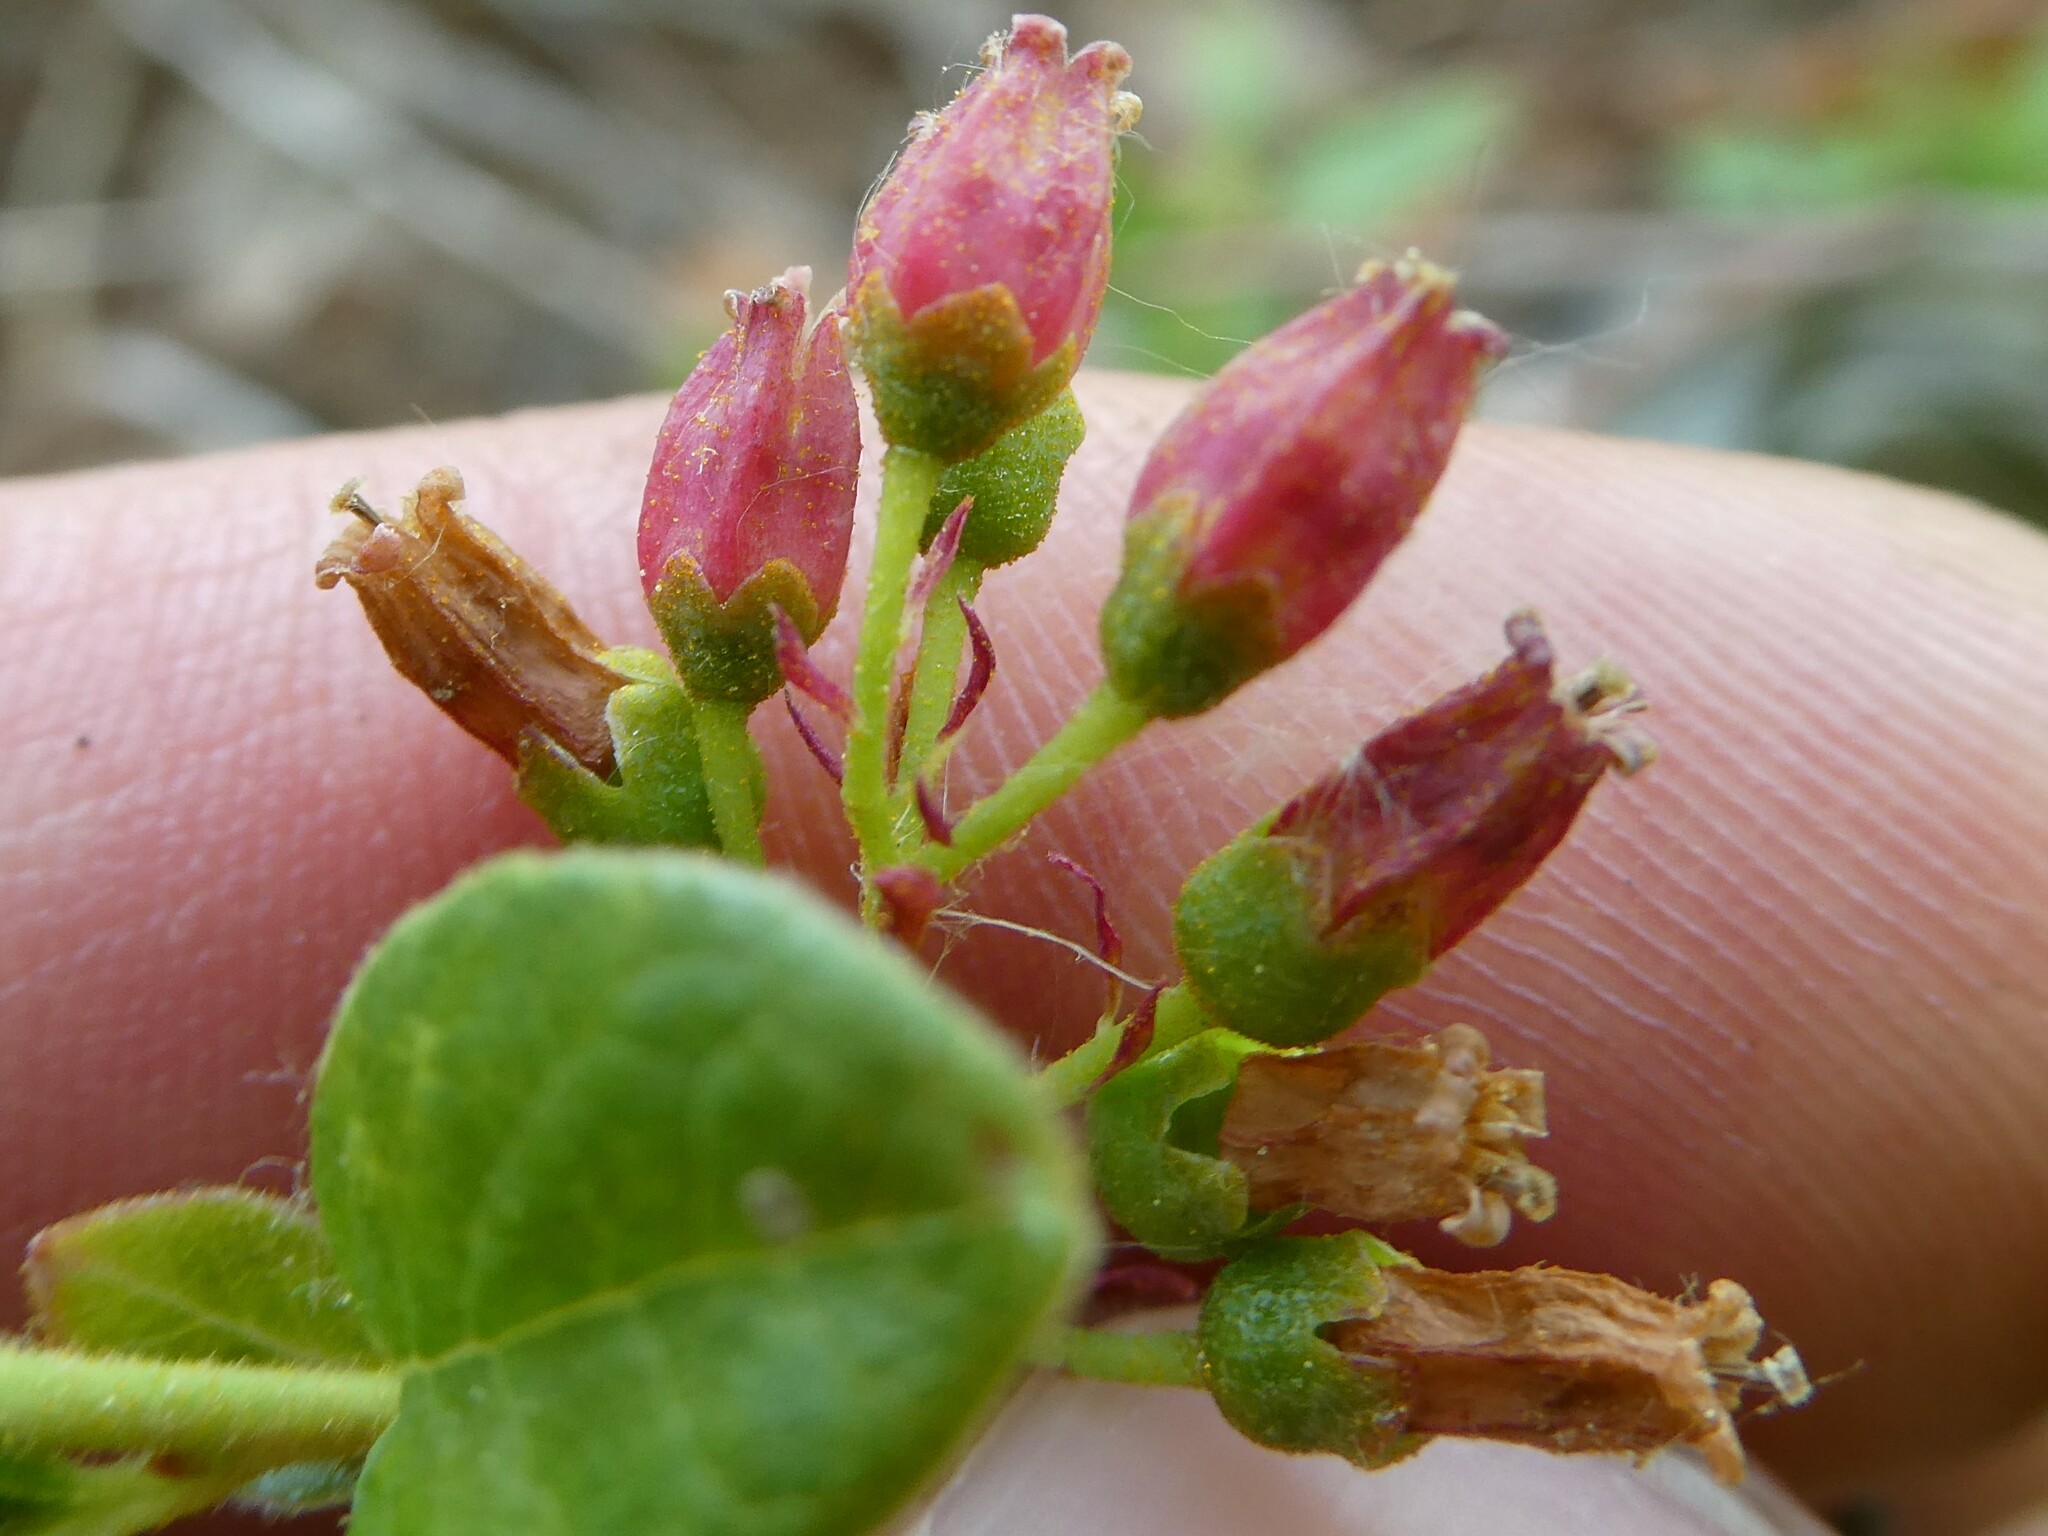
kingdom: Plantae
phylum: Tracheophyta
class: Magnoliopsida
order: Ericales
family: Ericaceae
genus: Gaylussacia
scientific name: Gaylussacia baccata
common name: Black huckleberry
